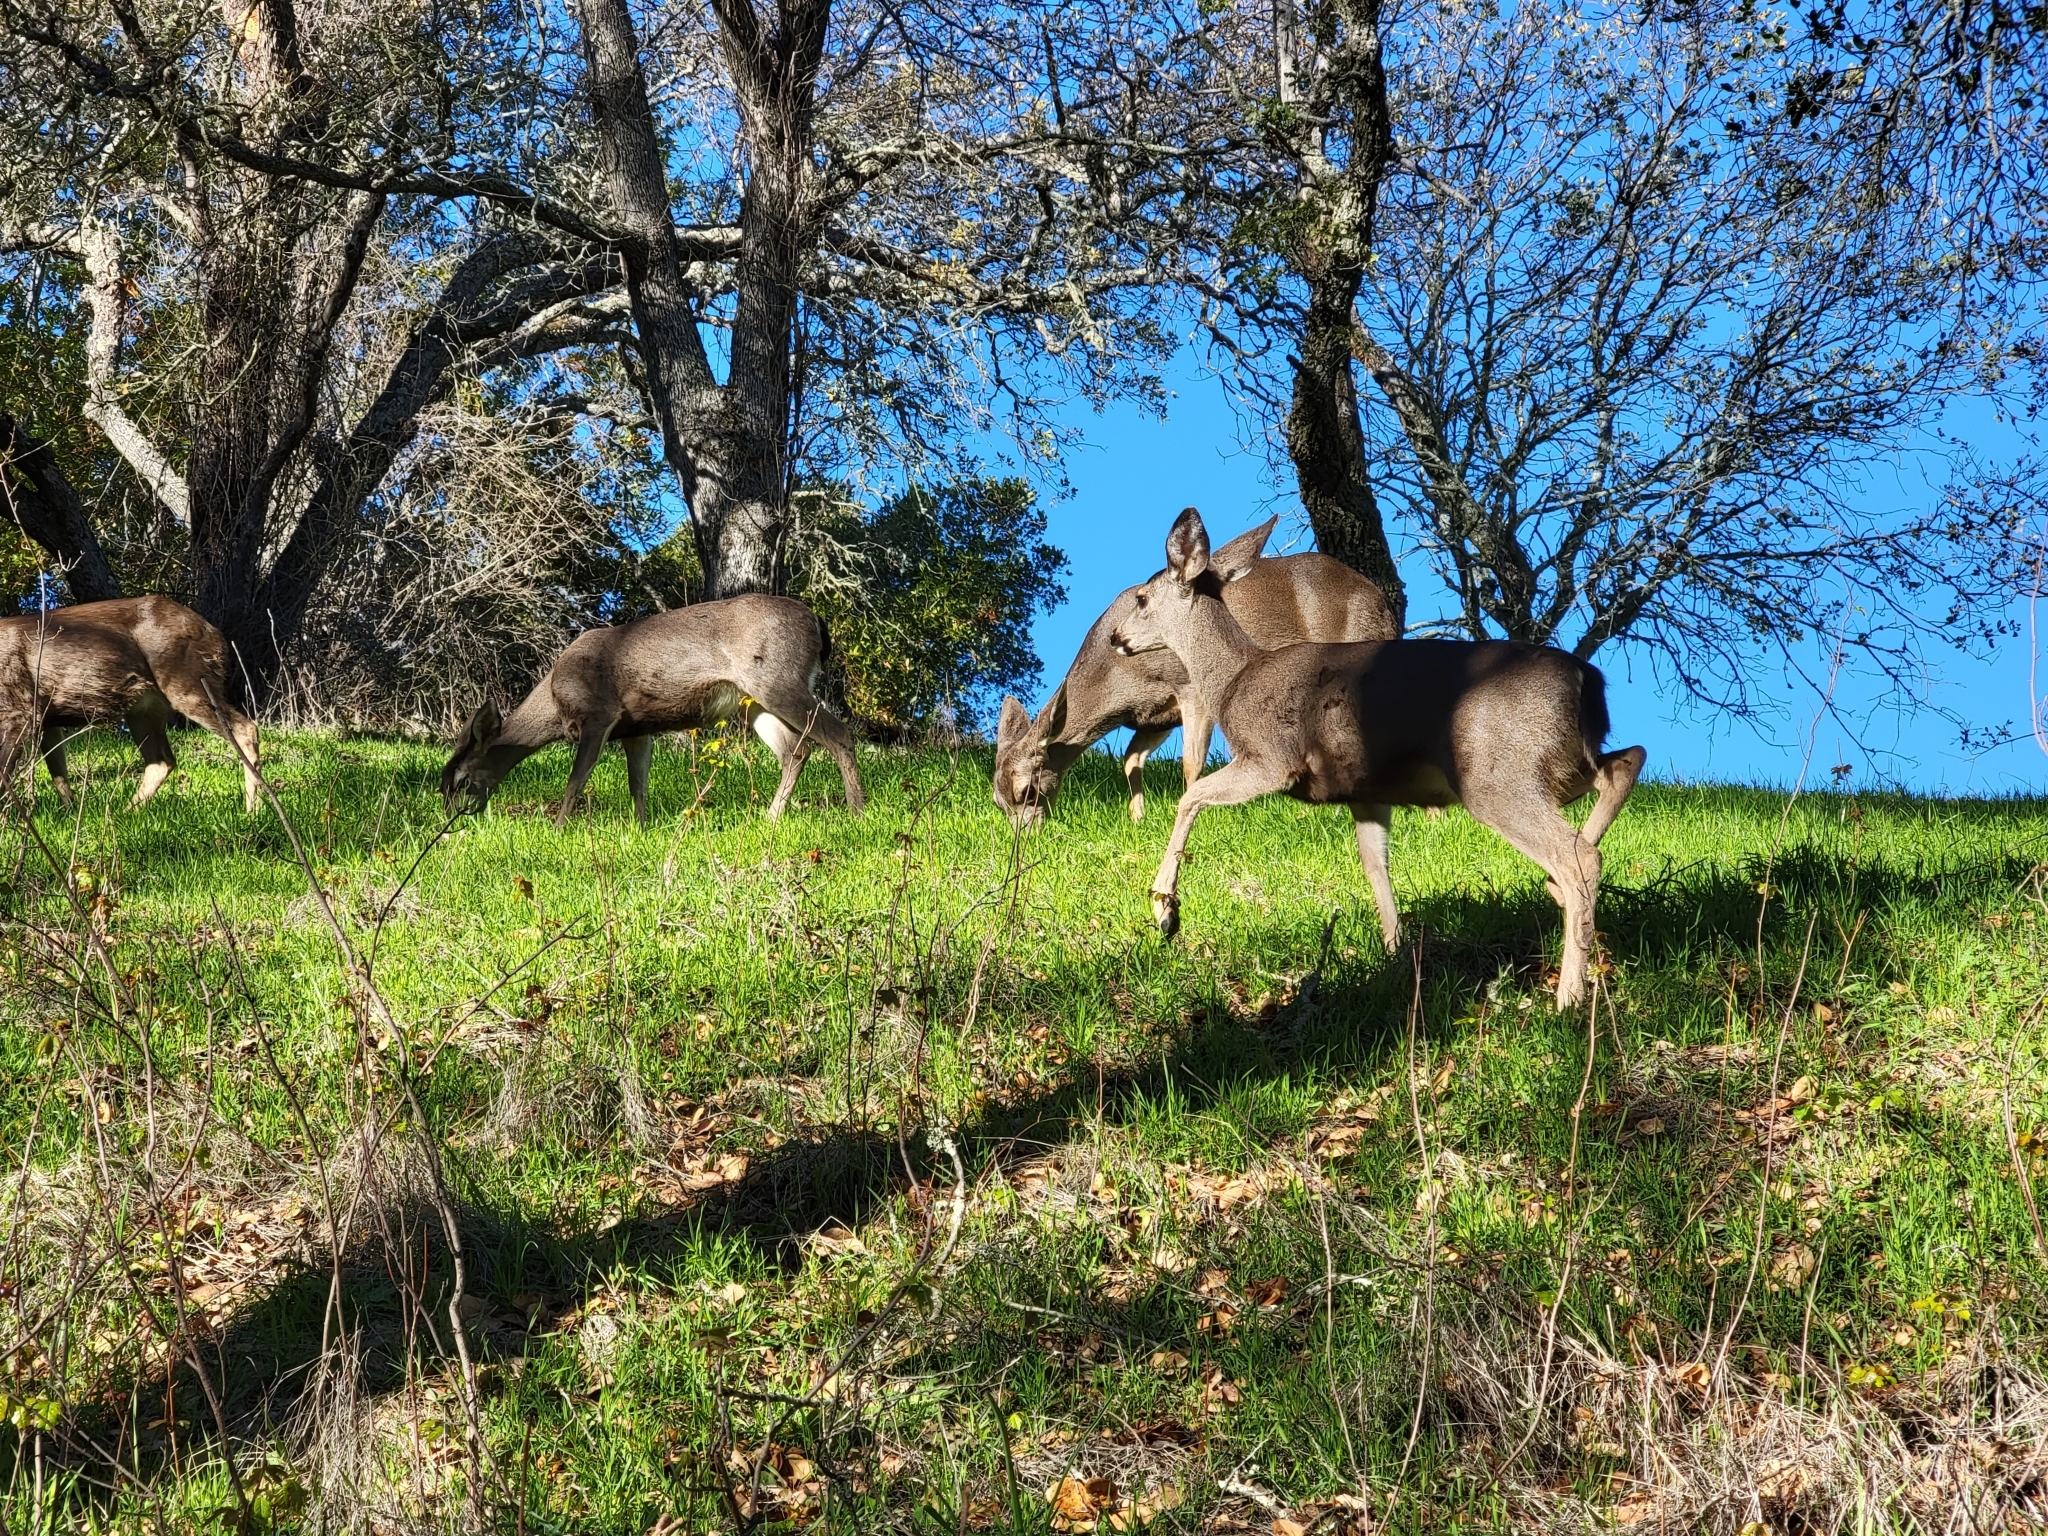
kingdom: Animalia
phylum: Chordata
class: Mammalia
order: Artiodactyla
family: Cervidae
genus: Odocoileus
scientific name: Odocoileus hemionus
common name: Mule deer
